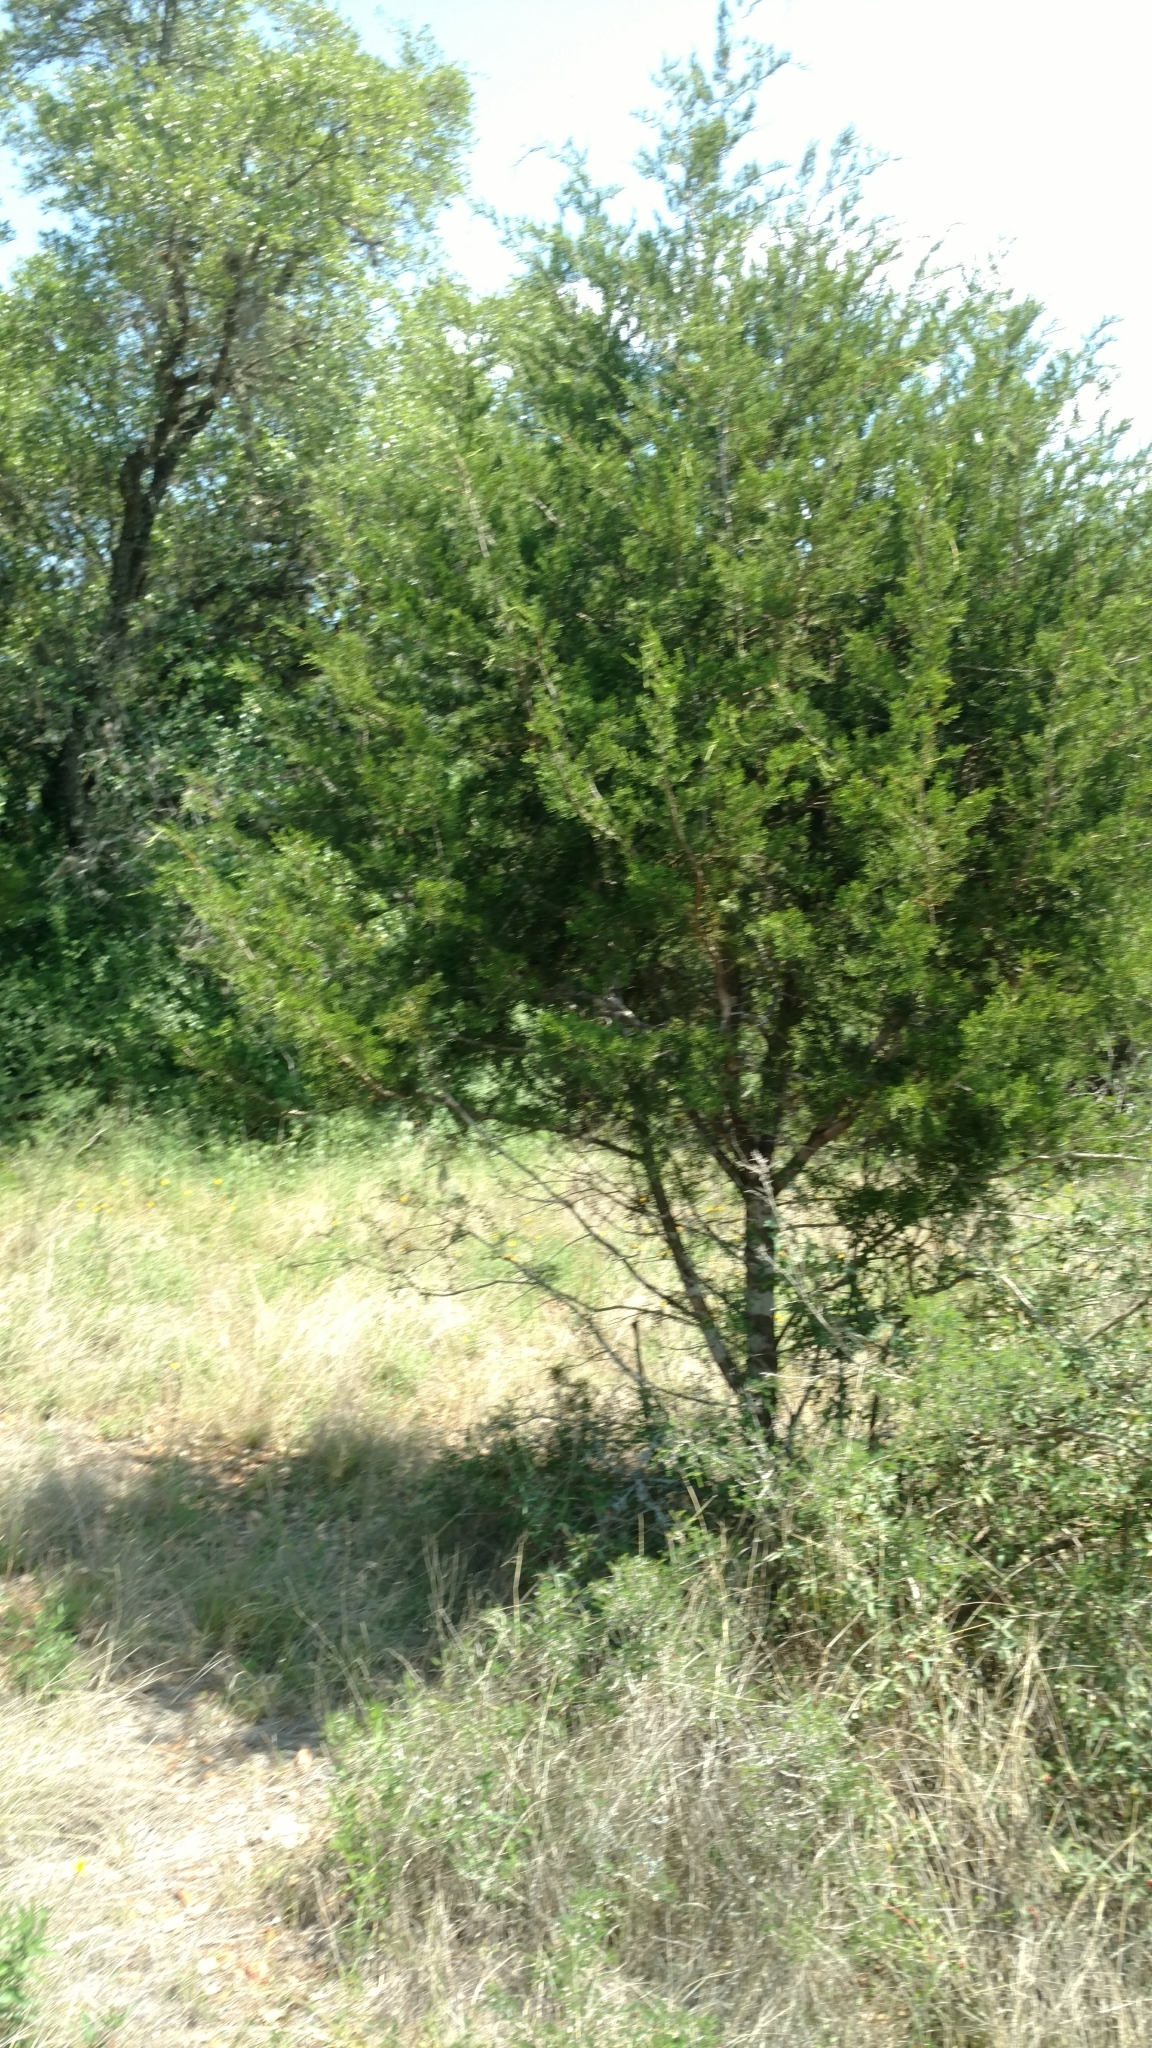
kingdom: Plantae
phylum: Tracheophyta
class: Pinopsida
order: Pinales
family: Cupressaceae
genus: Juniperus
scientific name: Juniperus ashei
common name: Mexican juniper
